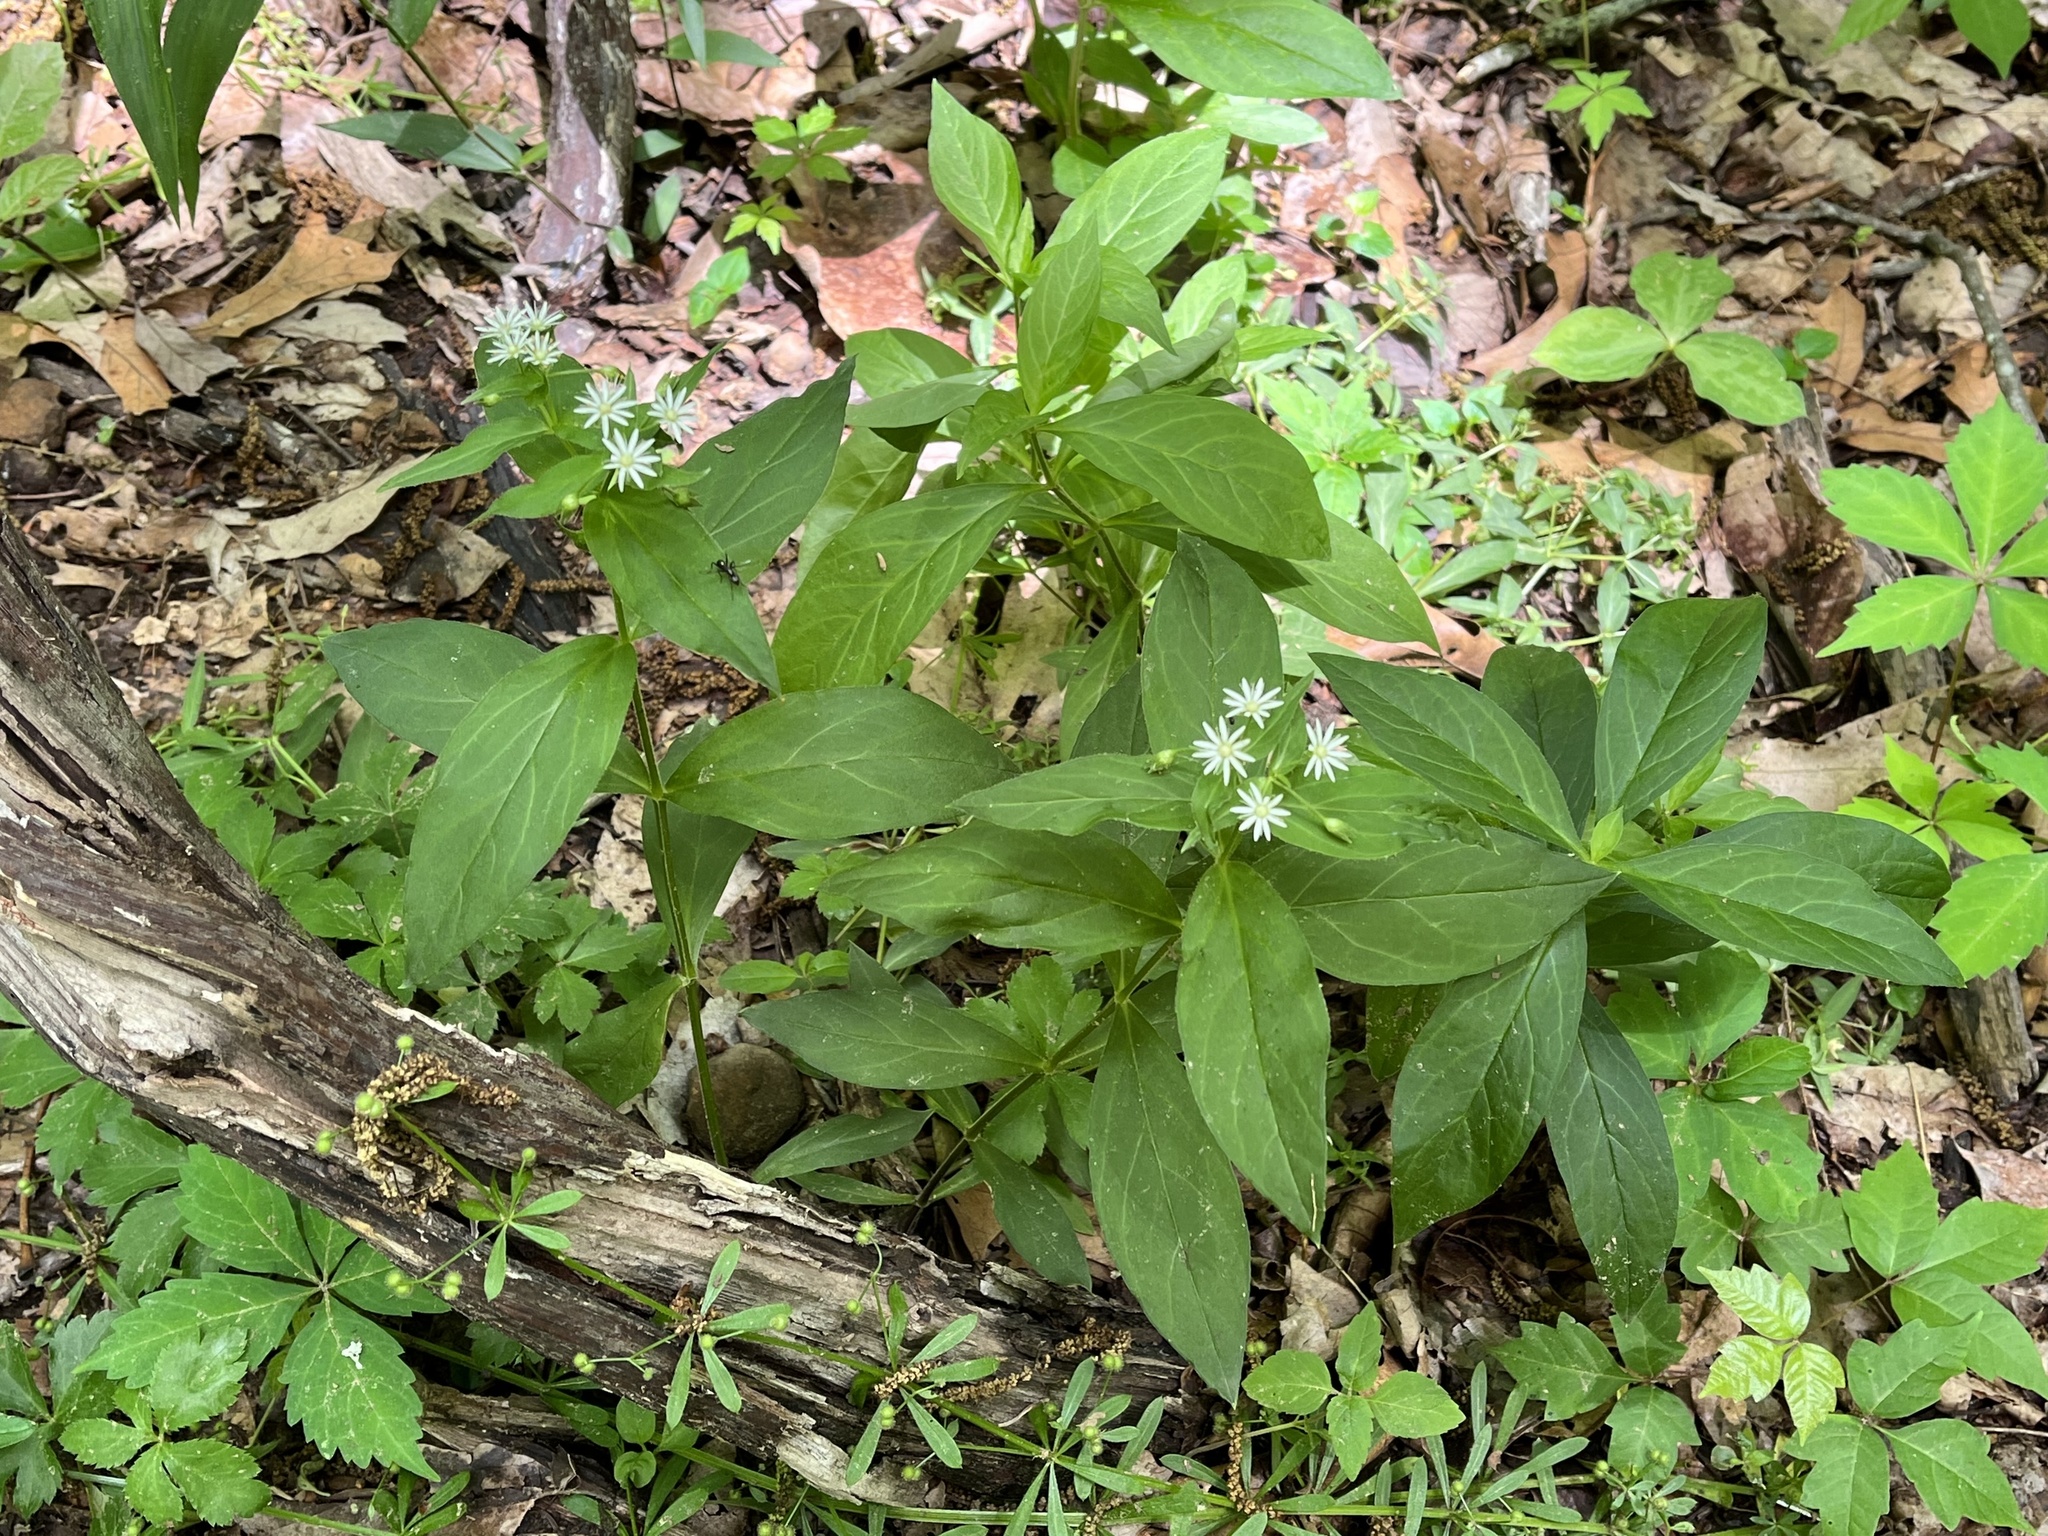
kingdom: Plantae
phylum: Tracheophyta
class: Magnoliopsida
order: Caryophyllales
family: Caryophyllaceae
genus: Stellaria
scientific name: Stellaria pubera
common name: Star chickweed
